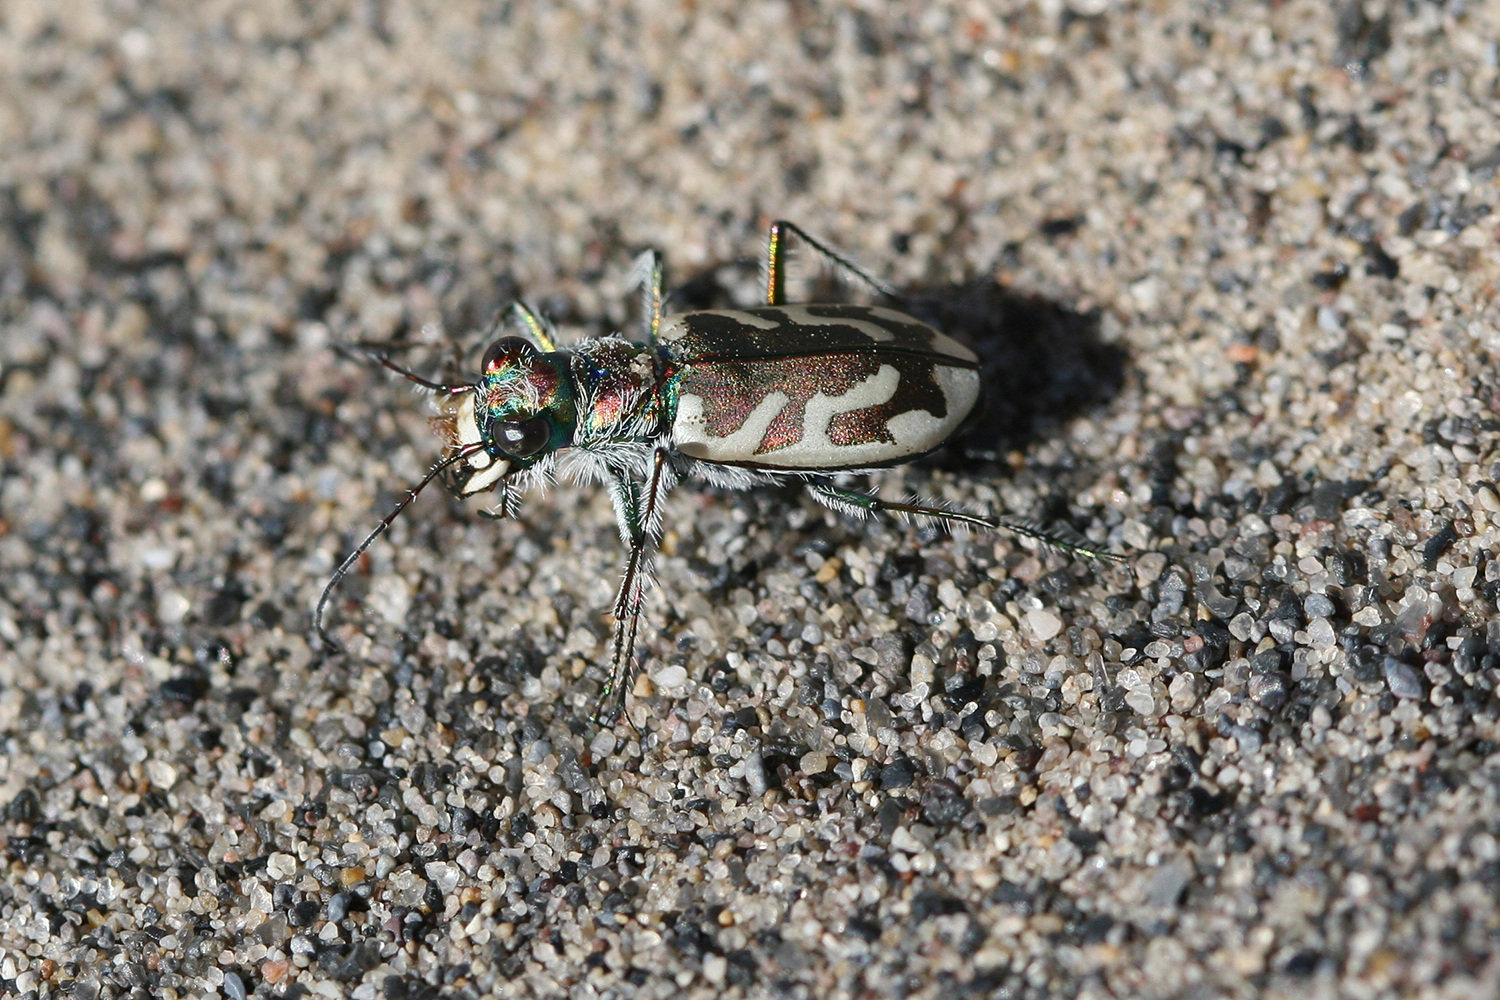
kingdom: Animalia
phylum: Arthropoda
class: Insecta
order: Coleoptera
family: Carabidae
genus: Cicindela
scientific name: Cicindela arenicola
